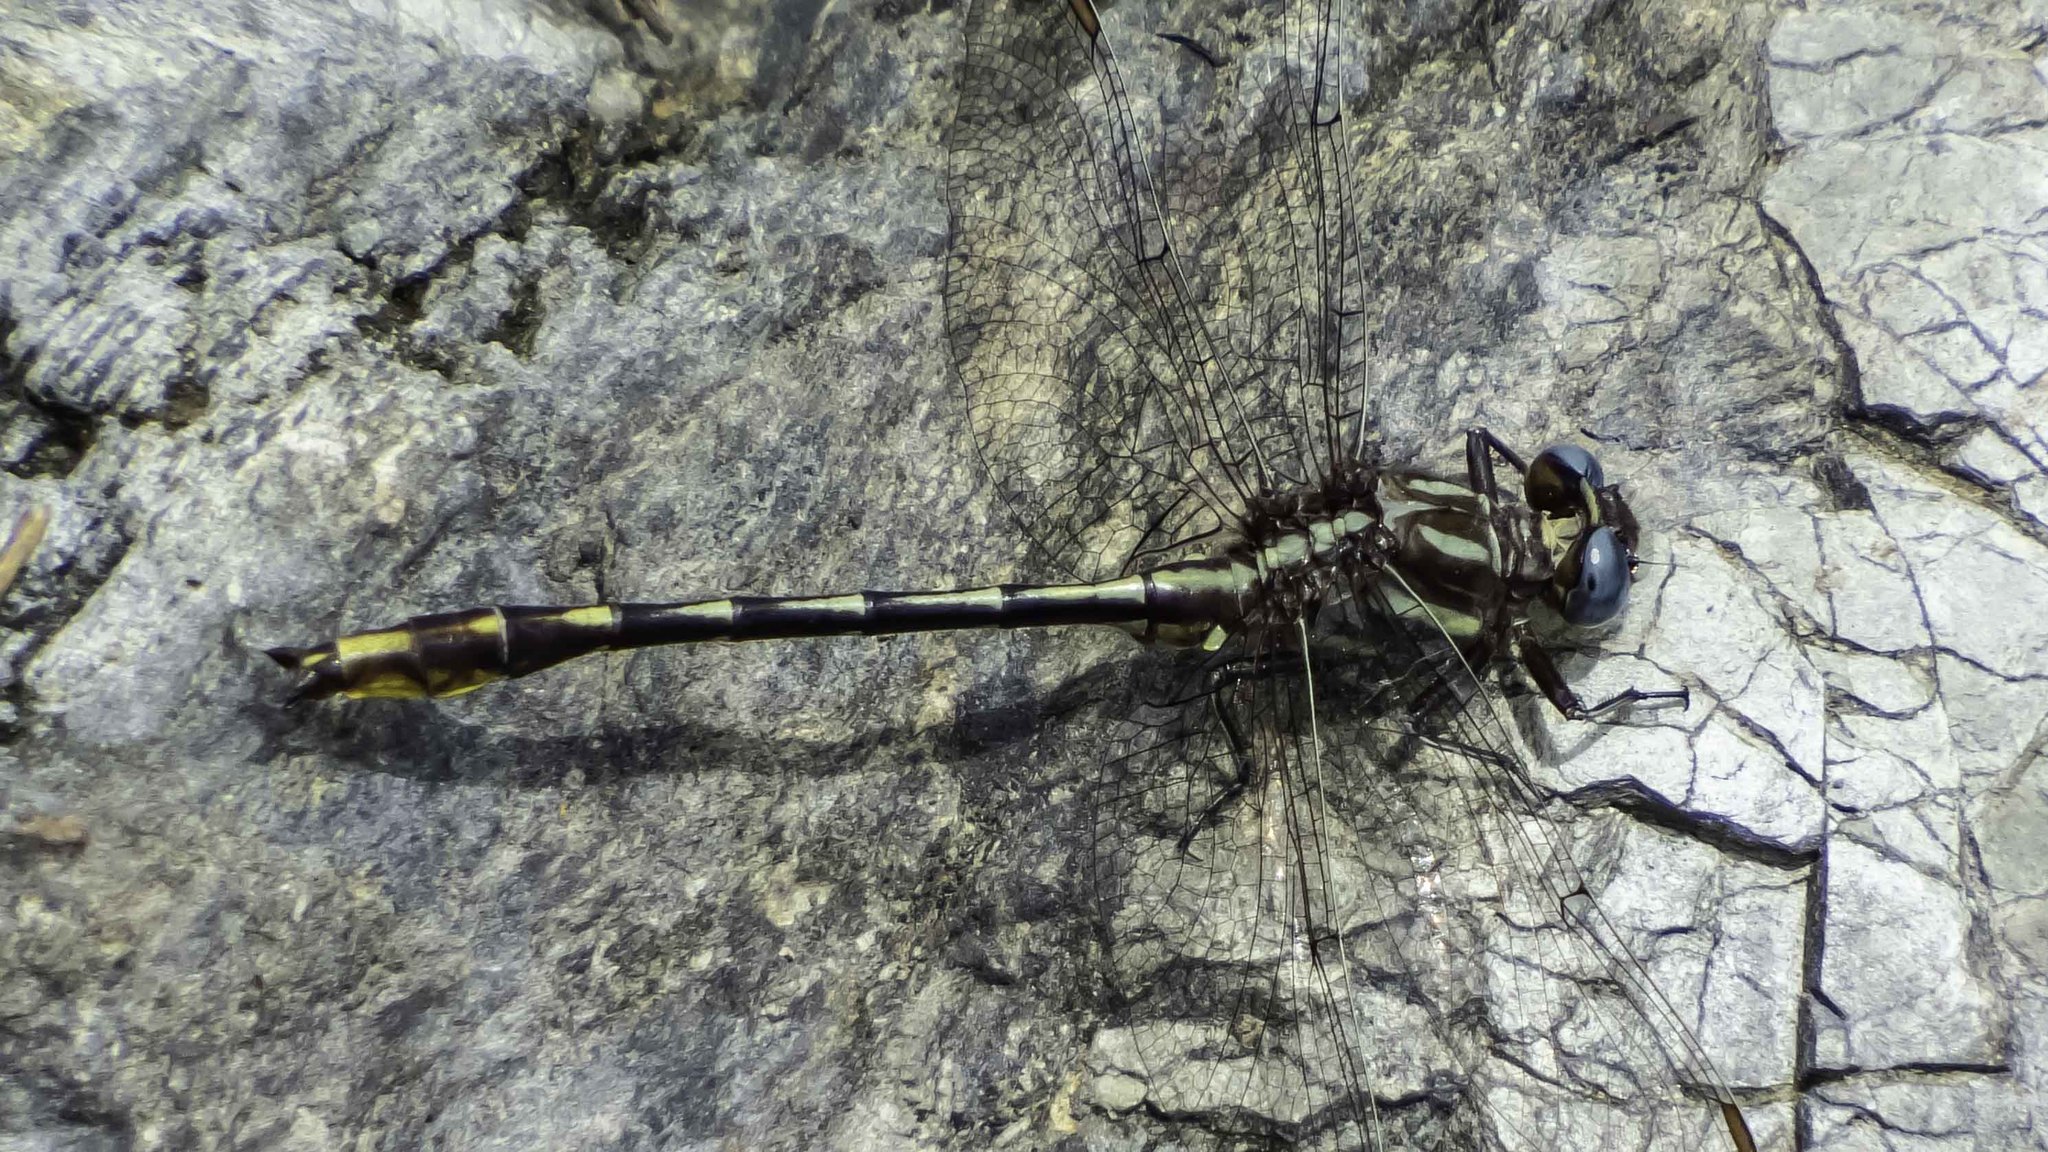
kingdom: Animalia
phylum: Arthropoda
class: Insecta
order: Odonata
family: Gomphidae
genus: Phanogomphus
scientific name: Phanogomphus exilis
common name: Lancet clubtail
